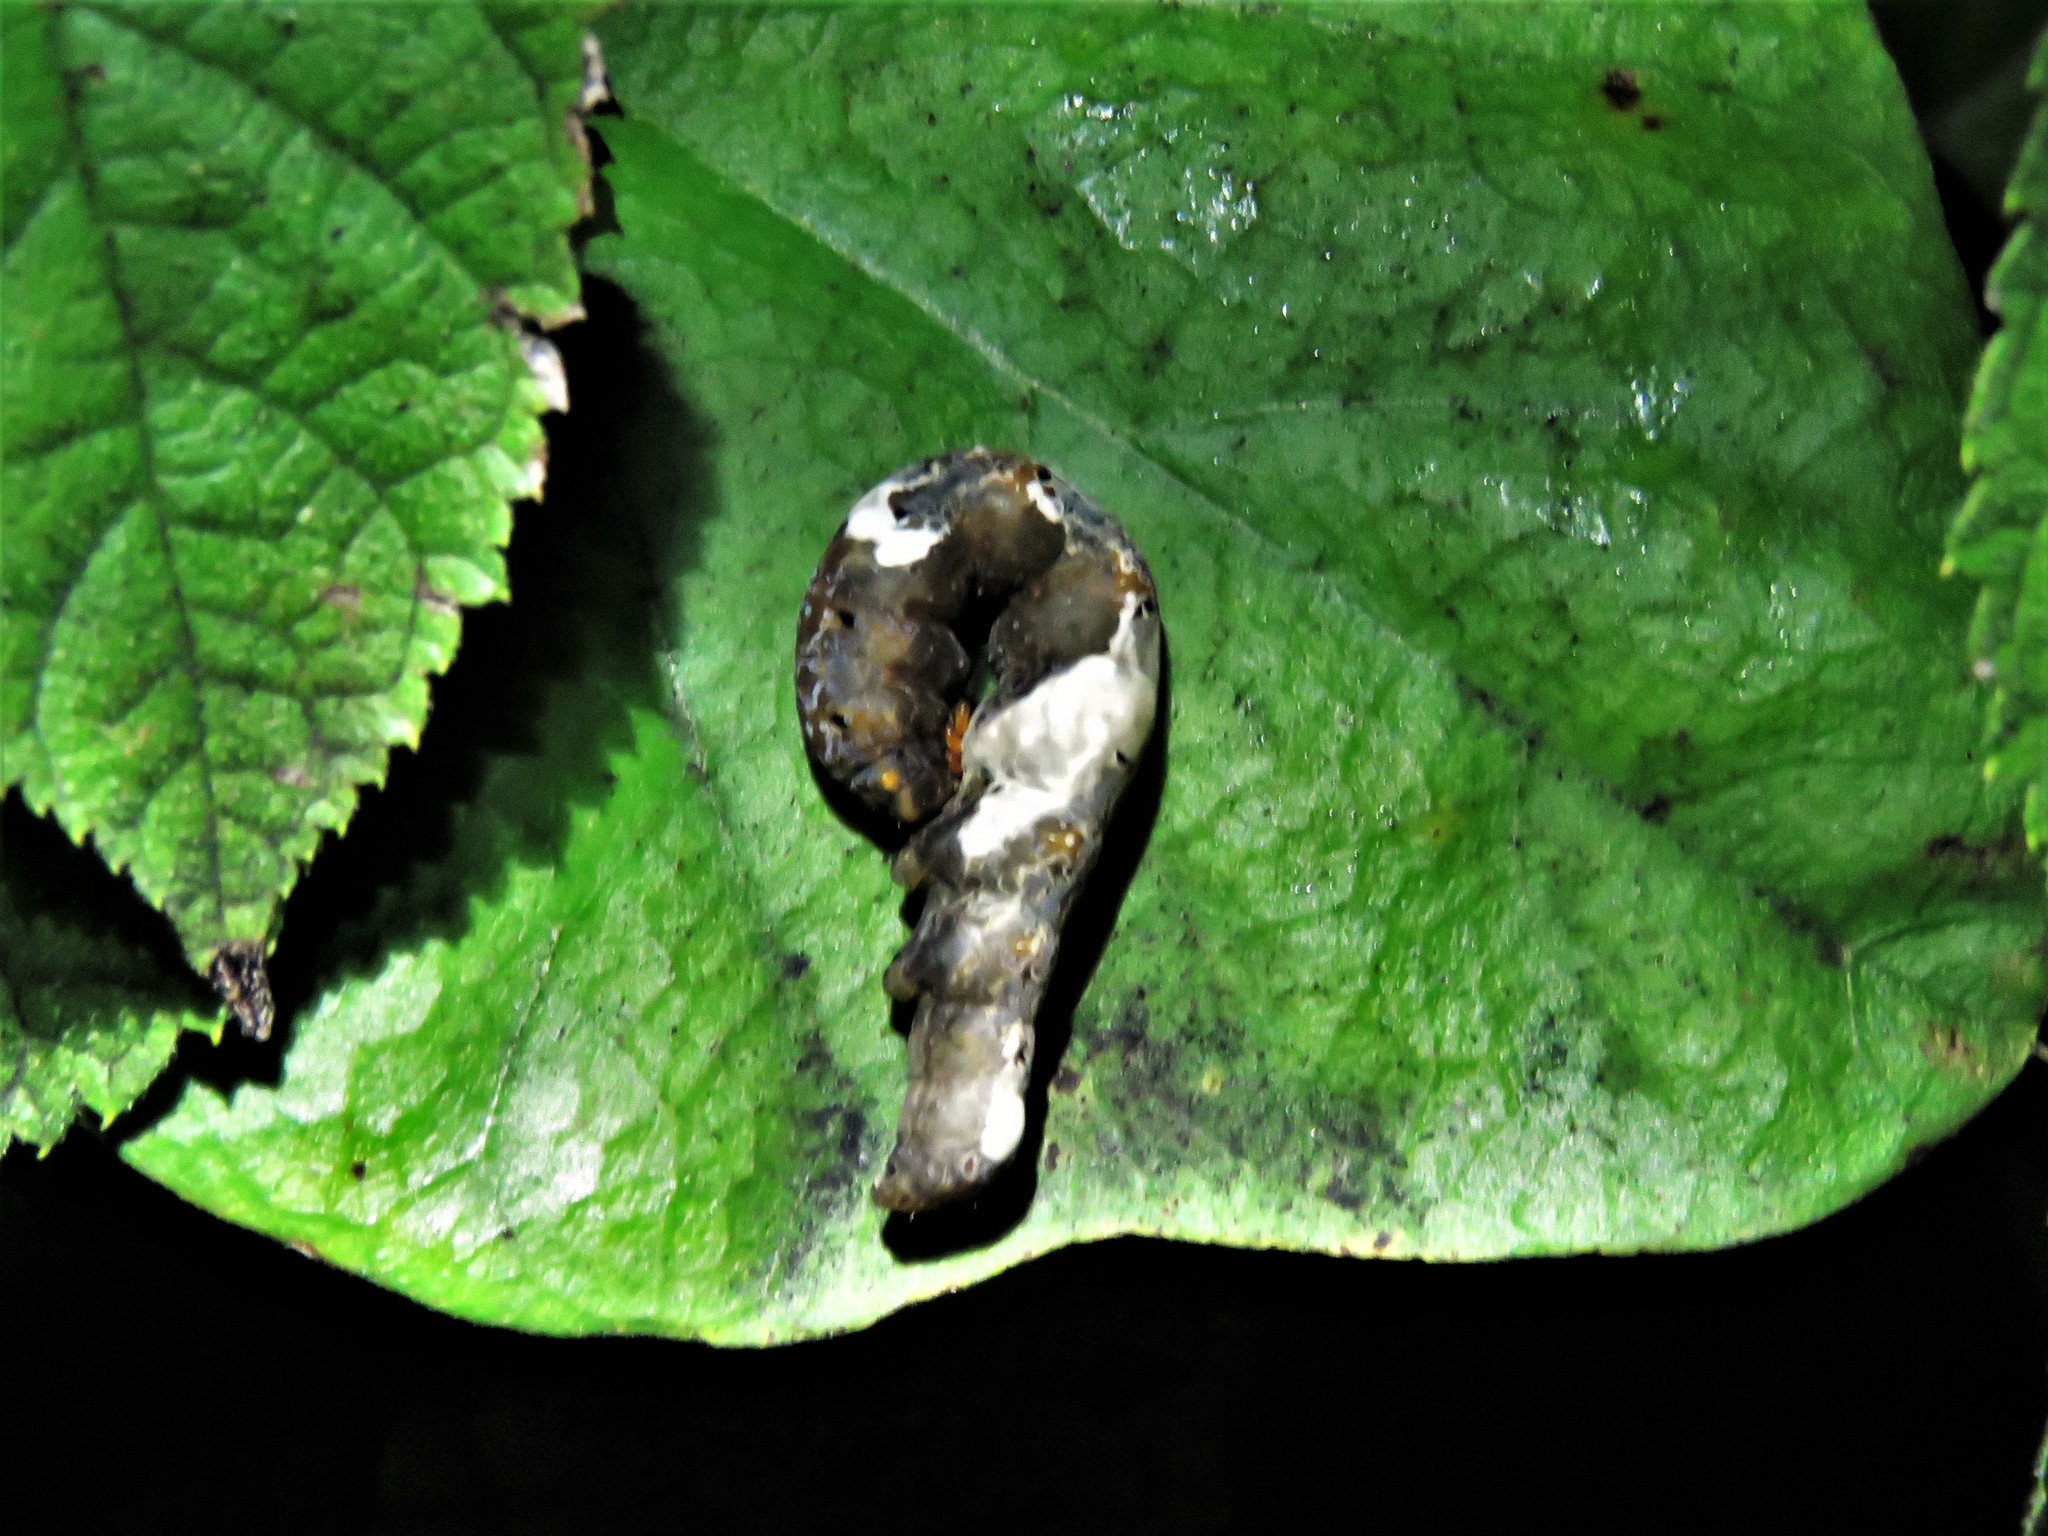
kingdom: Animalia
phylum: Arthropoda
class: Insecta
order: Lepidoptera
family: Erebidae
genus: Plusiodonta
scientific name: Plusiodonta compressipalpis
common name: Moonseed moth
